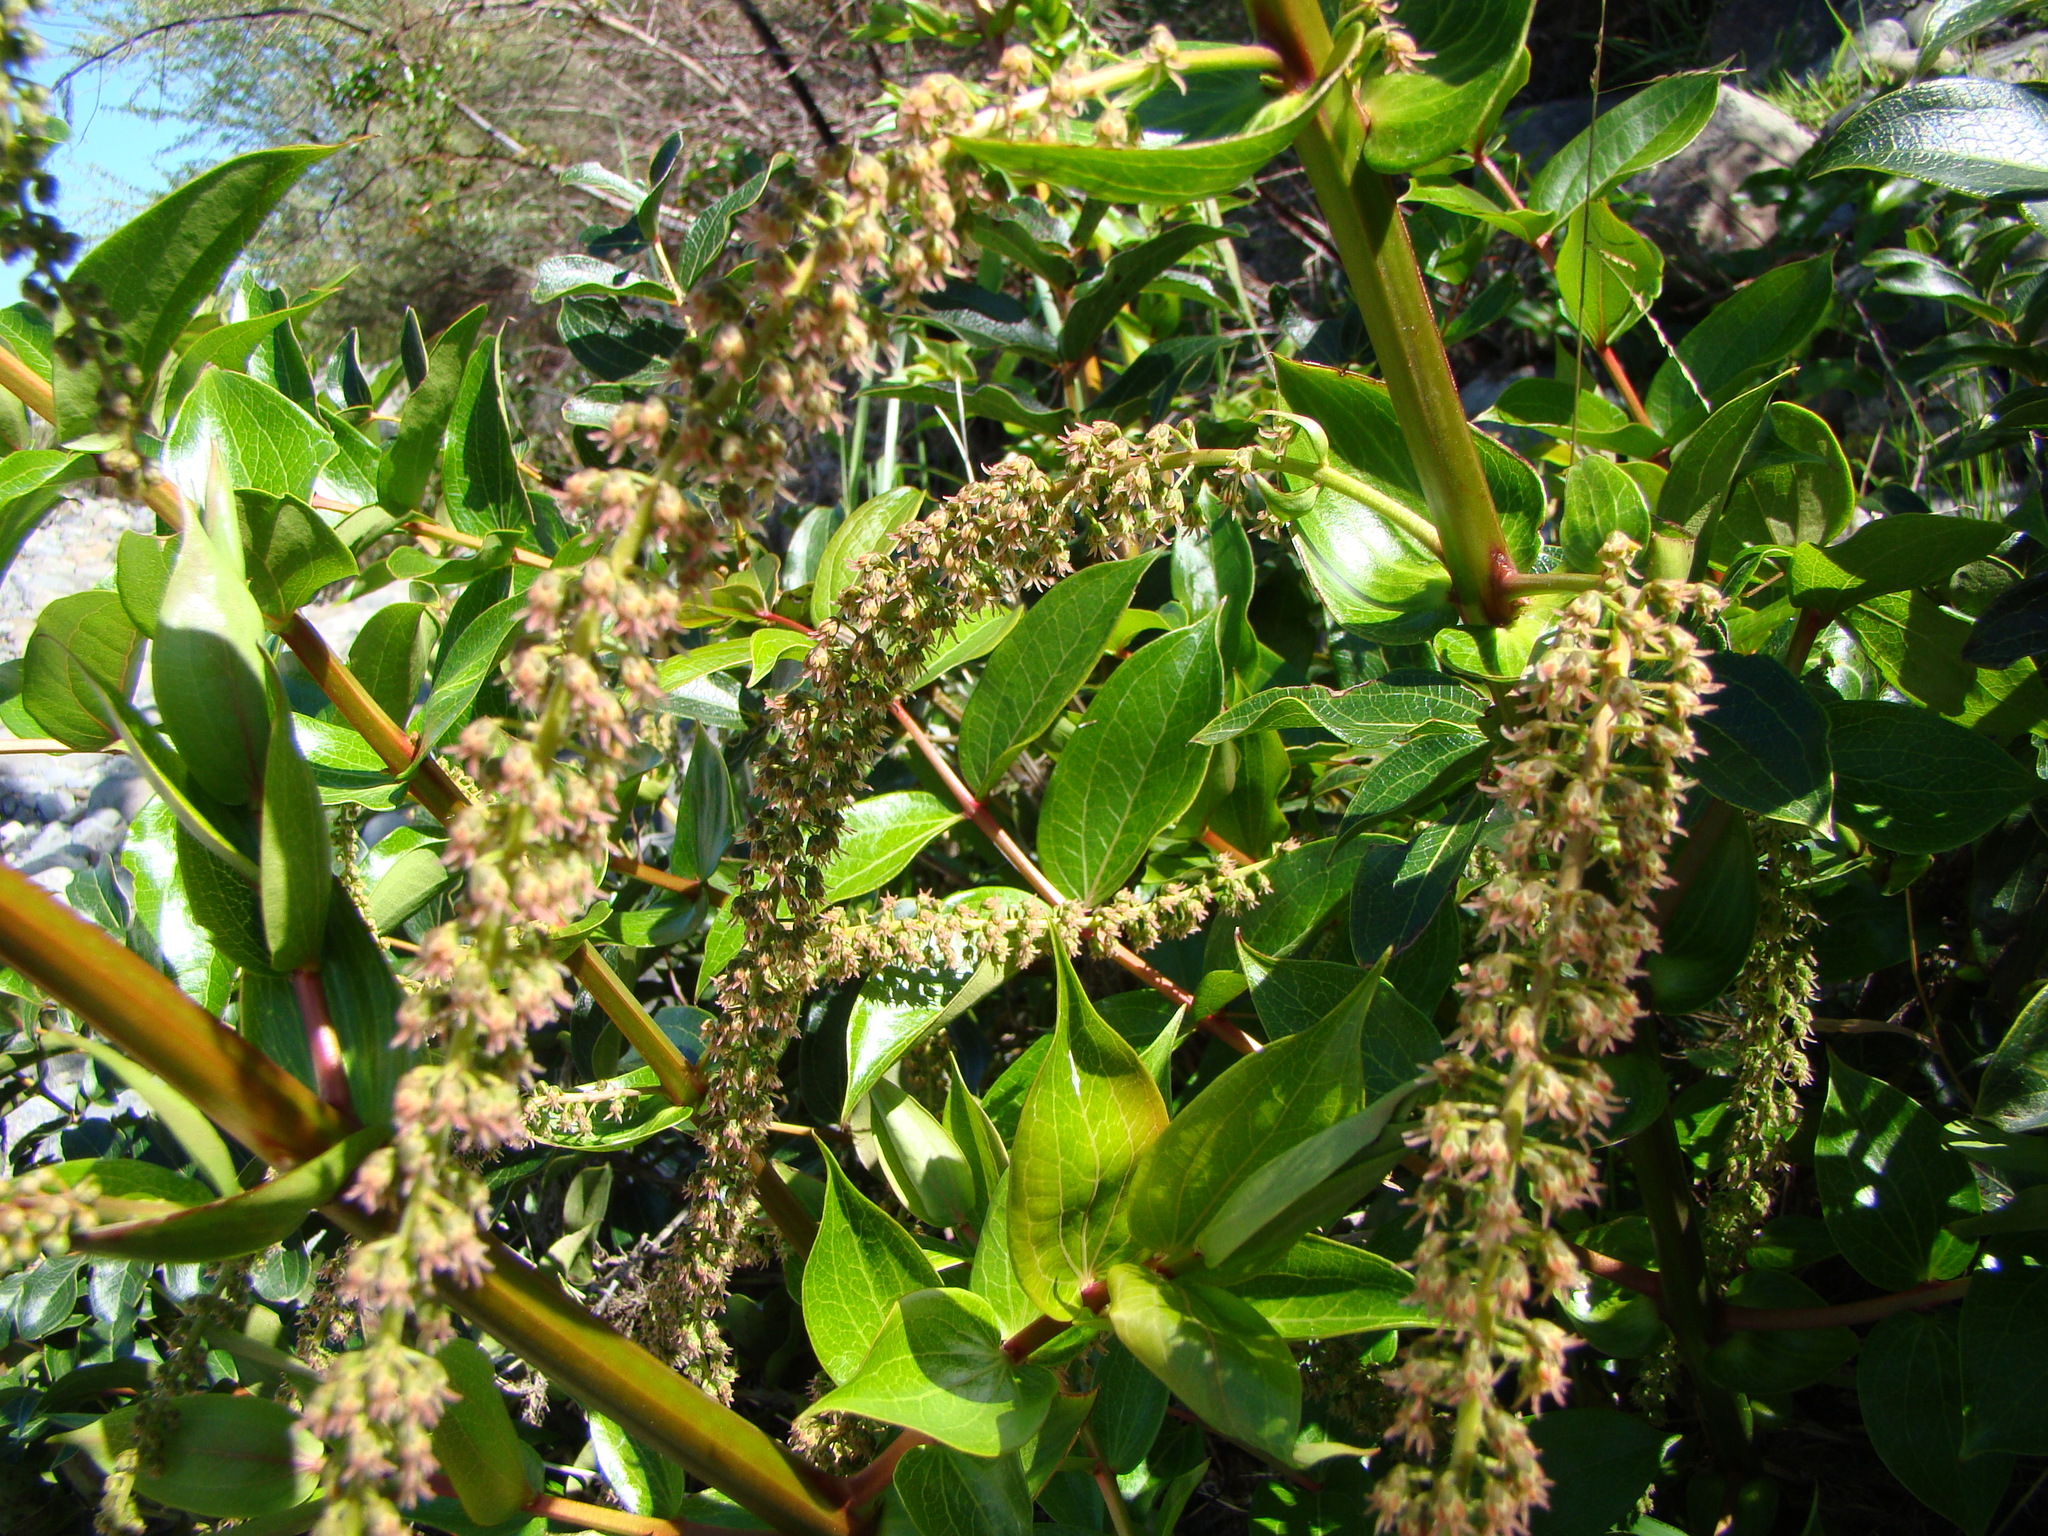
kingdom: Plantae
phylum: Tracheophyta
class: Magnoliopsida
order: Cucurbitales
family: Coriariaceae
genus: Coriaria
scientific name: Coriaria arborea
